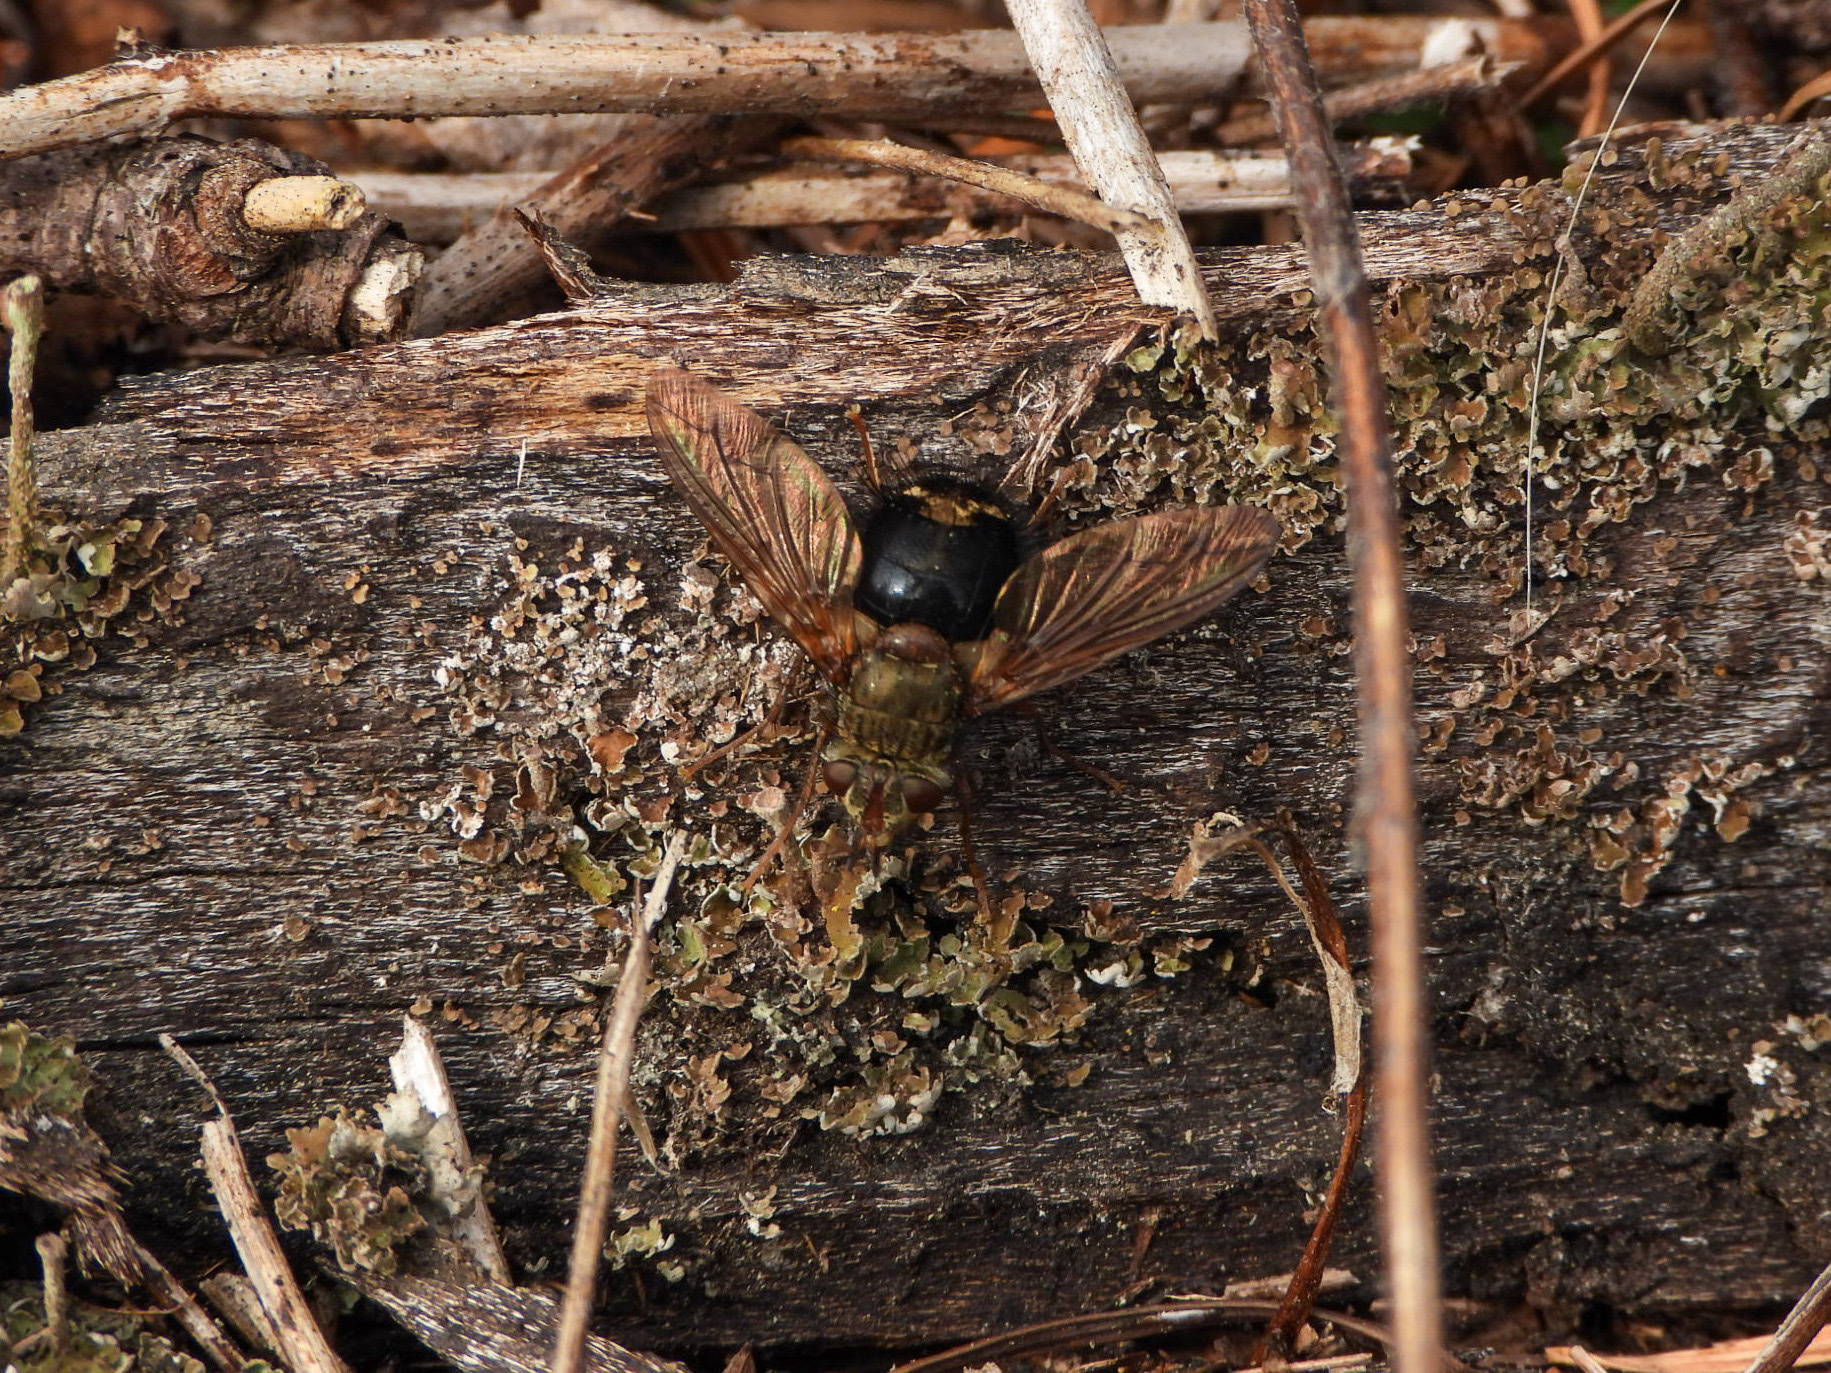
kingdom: Animalia
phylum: Arthropoda
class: Insecta
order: Diptera
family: Tachinidae
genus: Epalpus
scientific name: Epalpus signifer
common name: Early tachinid fly
